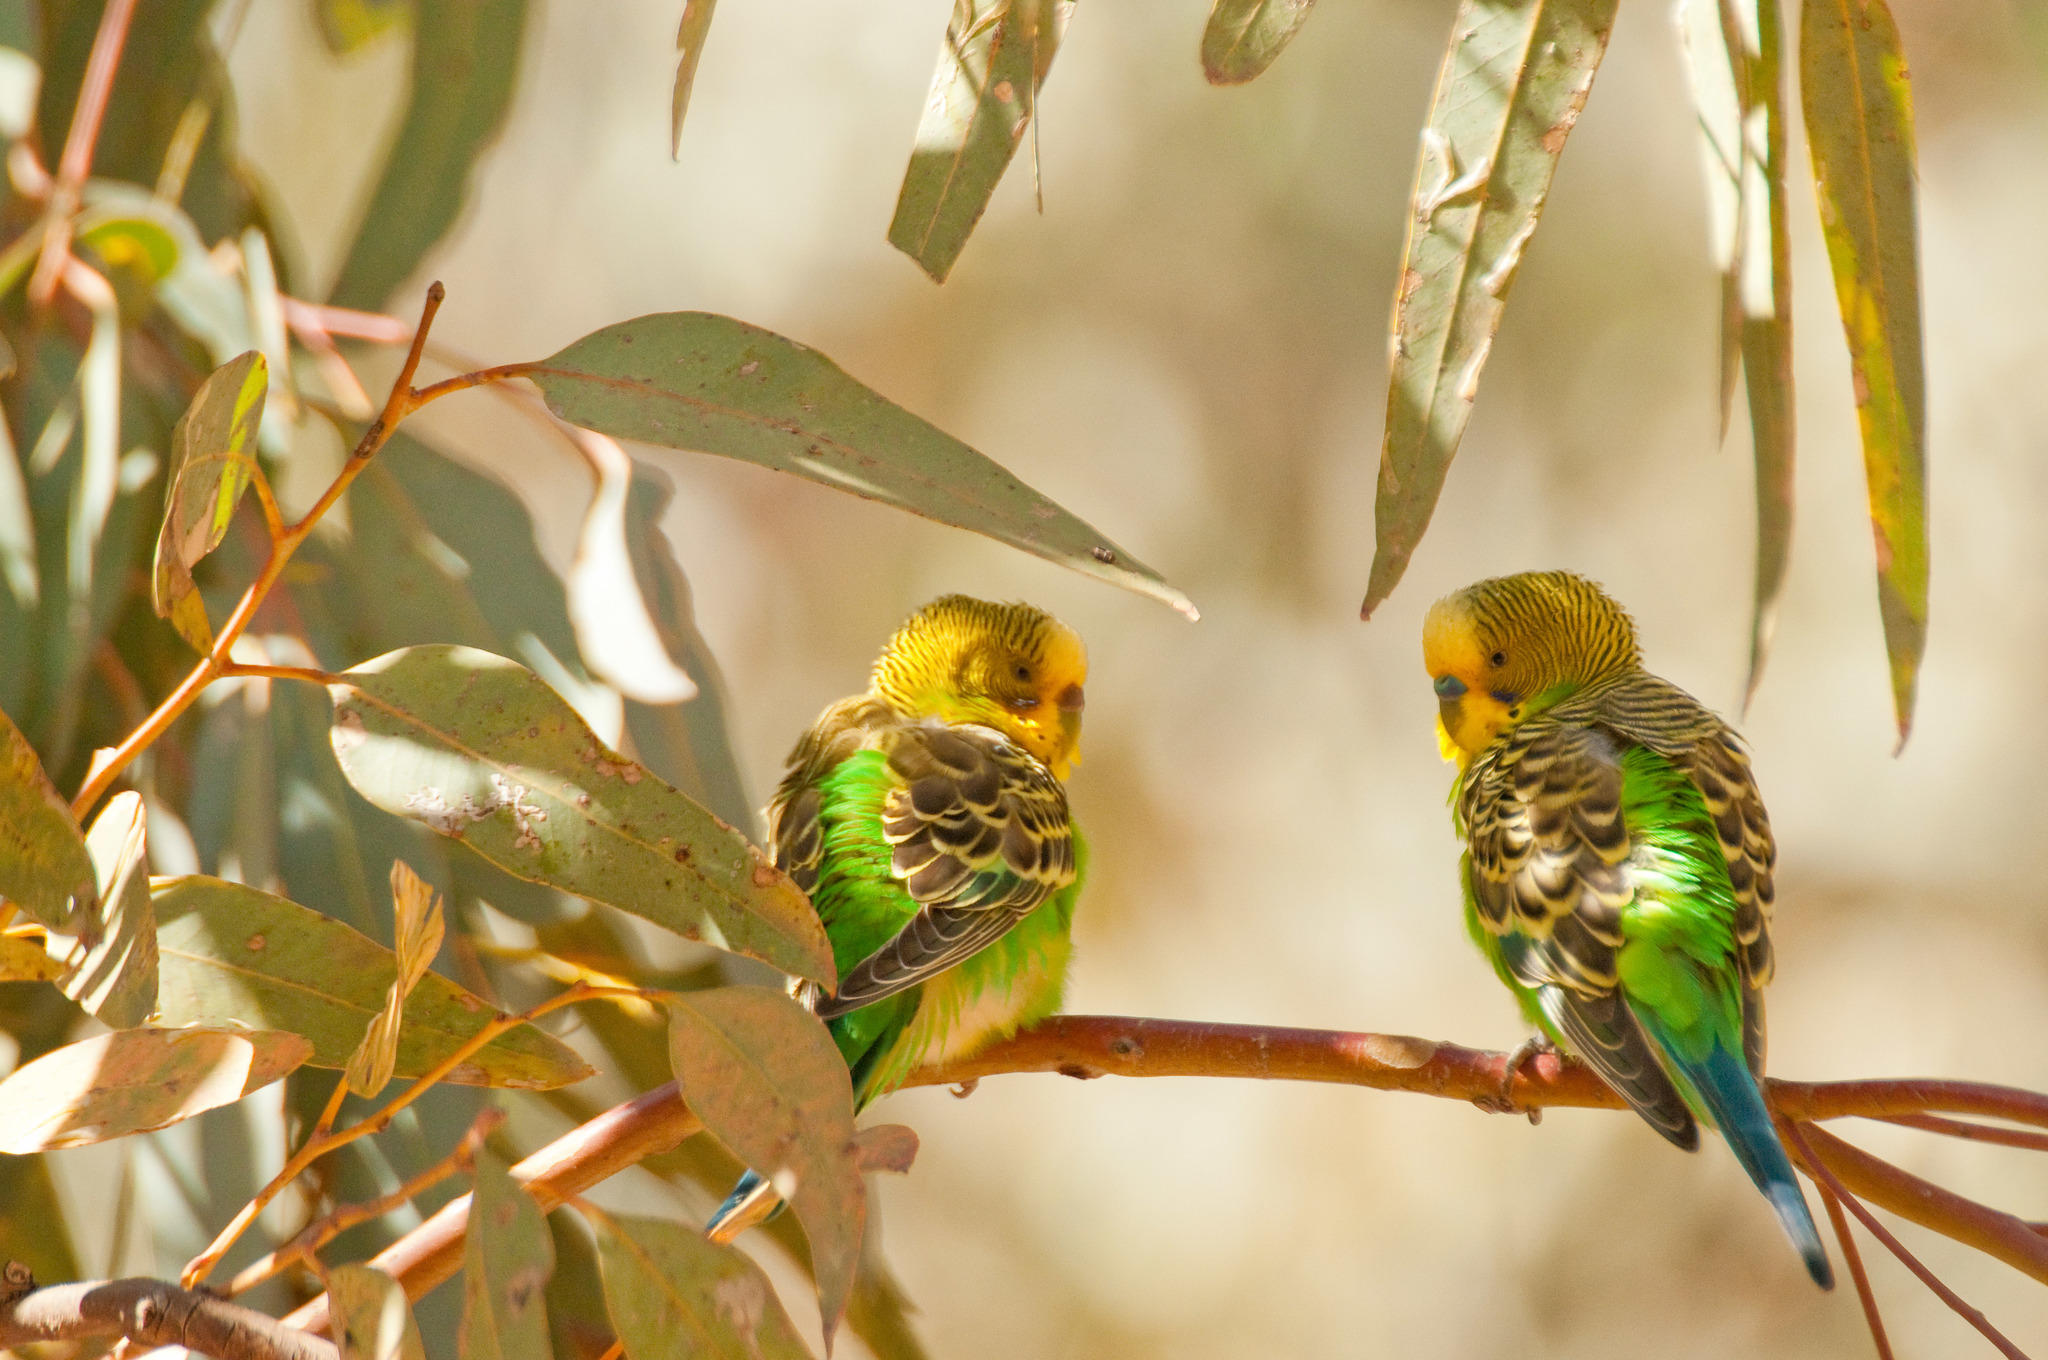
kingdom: Animalia
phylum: Chordata
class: Aves
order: Psittaciformes
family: Psittacidae
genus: Melopsittacus
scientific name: Melopsittacus undulatus
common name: Budgerigar
